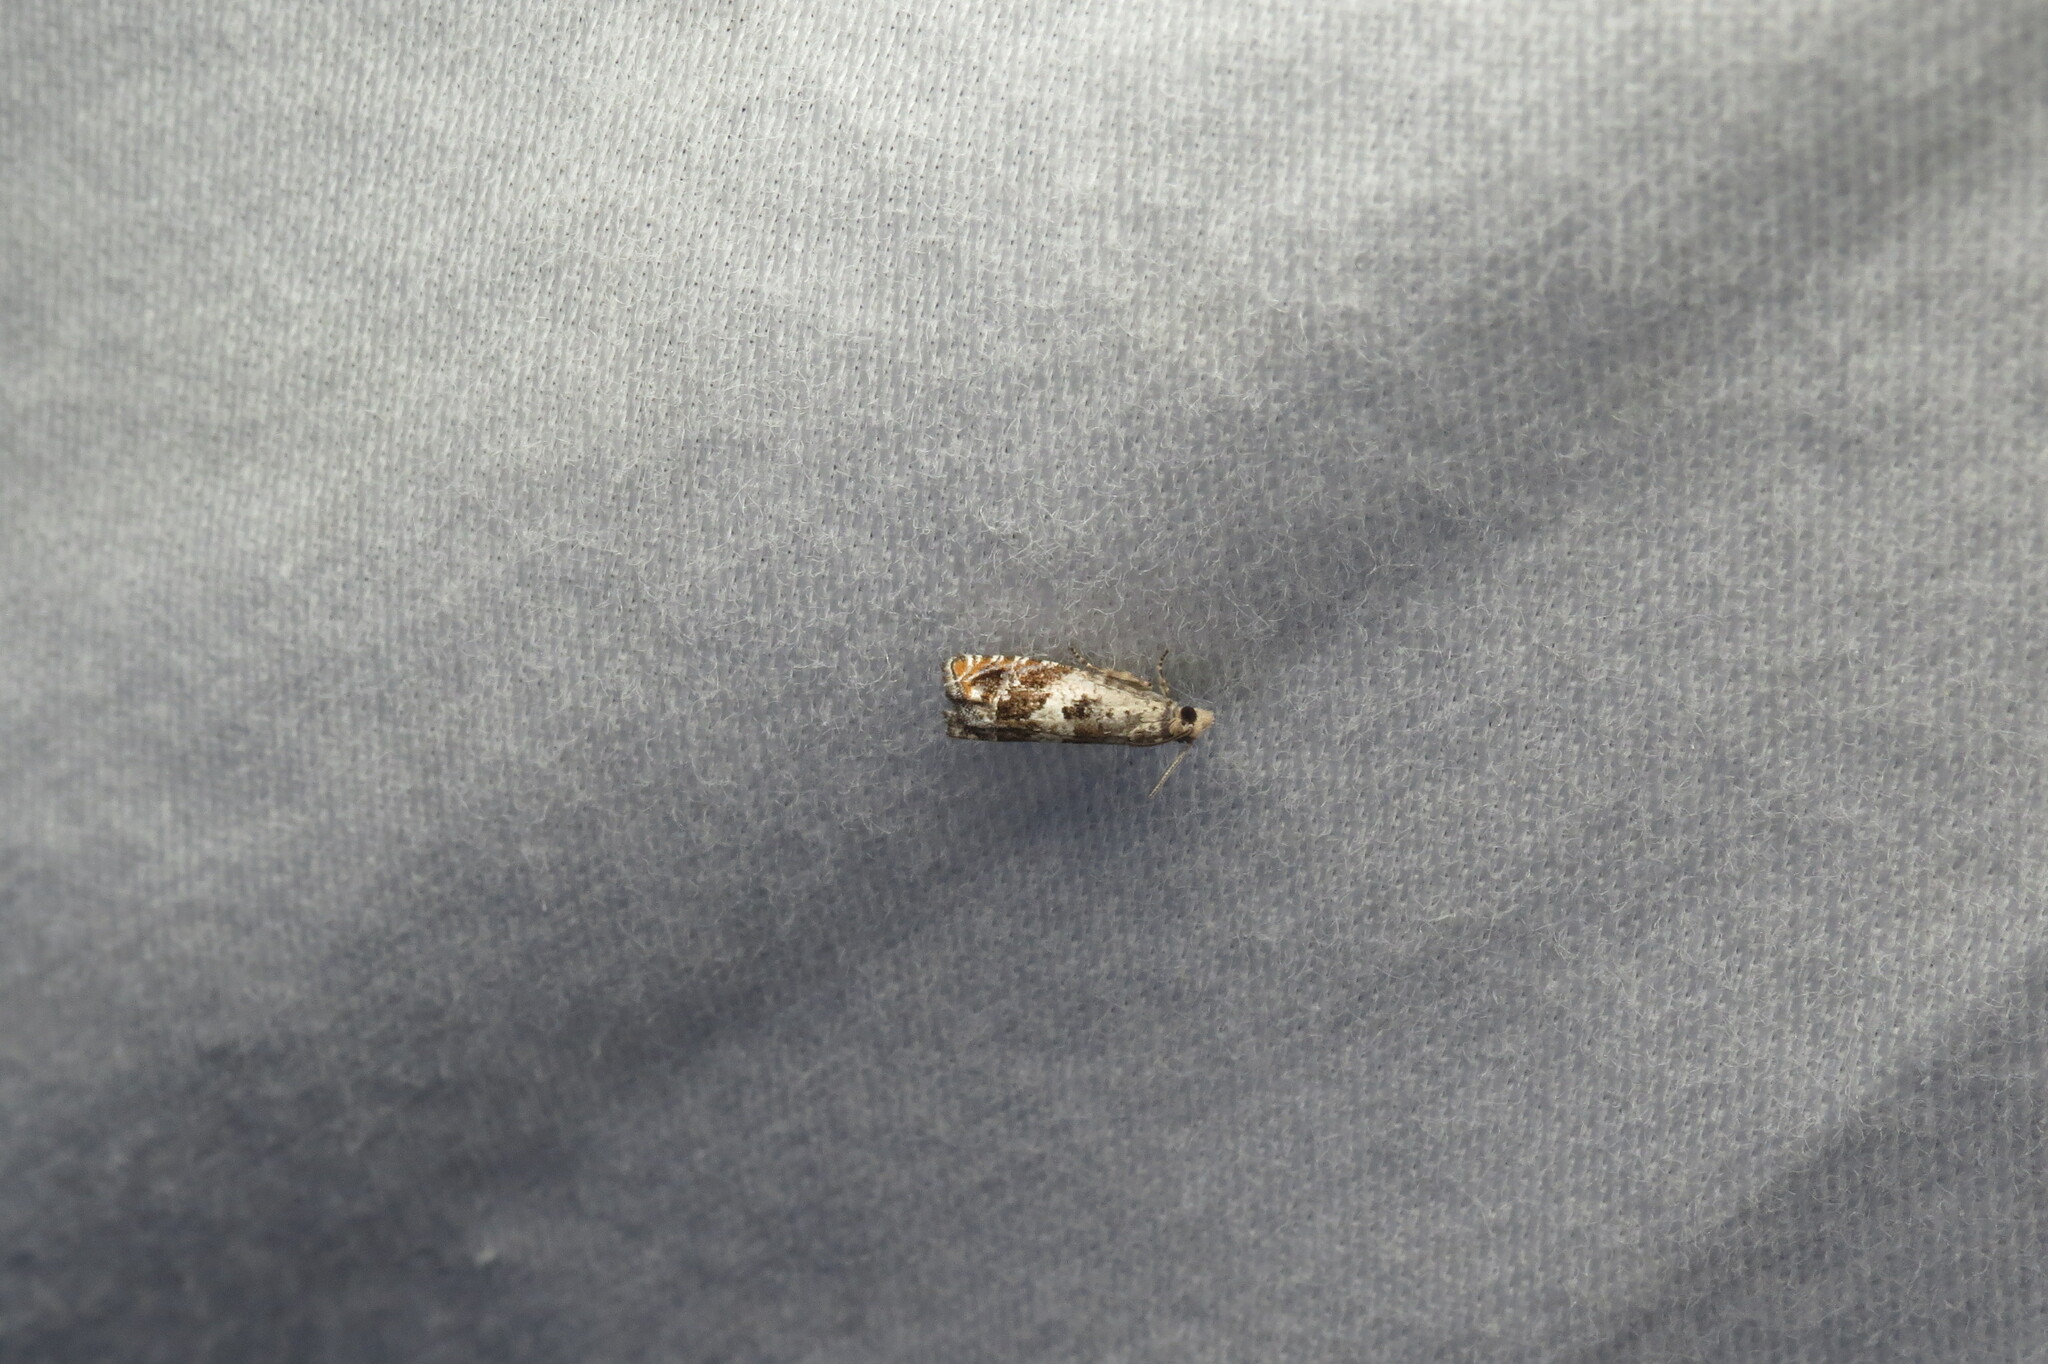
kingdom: Animalia
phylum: Arthropoda
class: Insecta
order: Lepidoptera
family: Tortricidae
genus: Epinotia
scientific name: Epinotia nigralbanoidana
